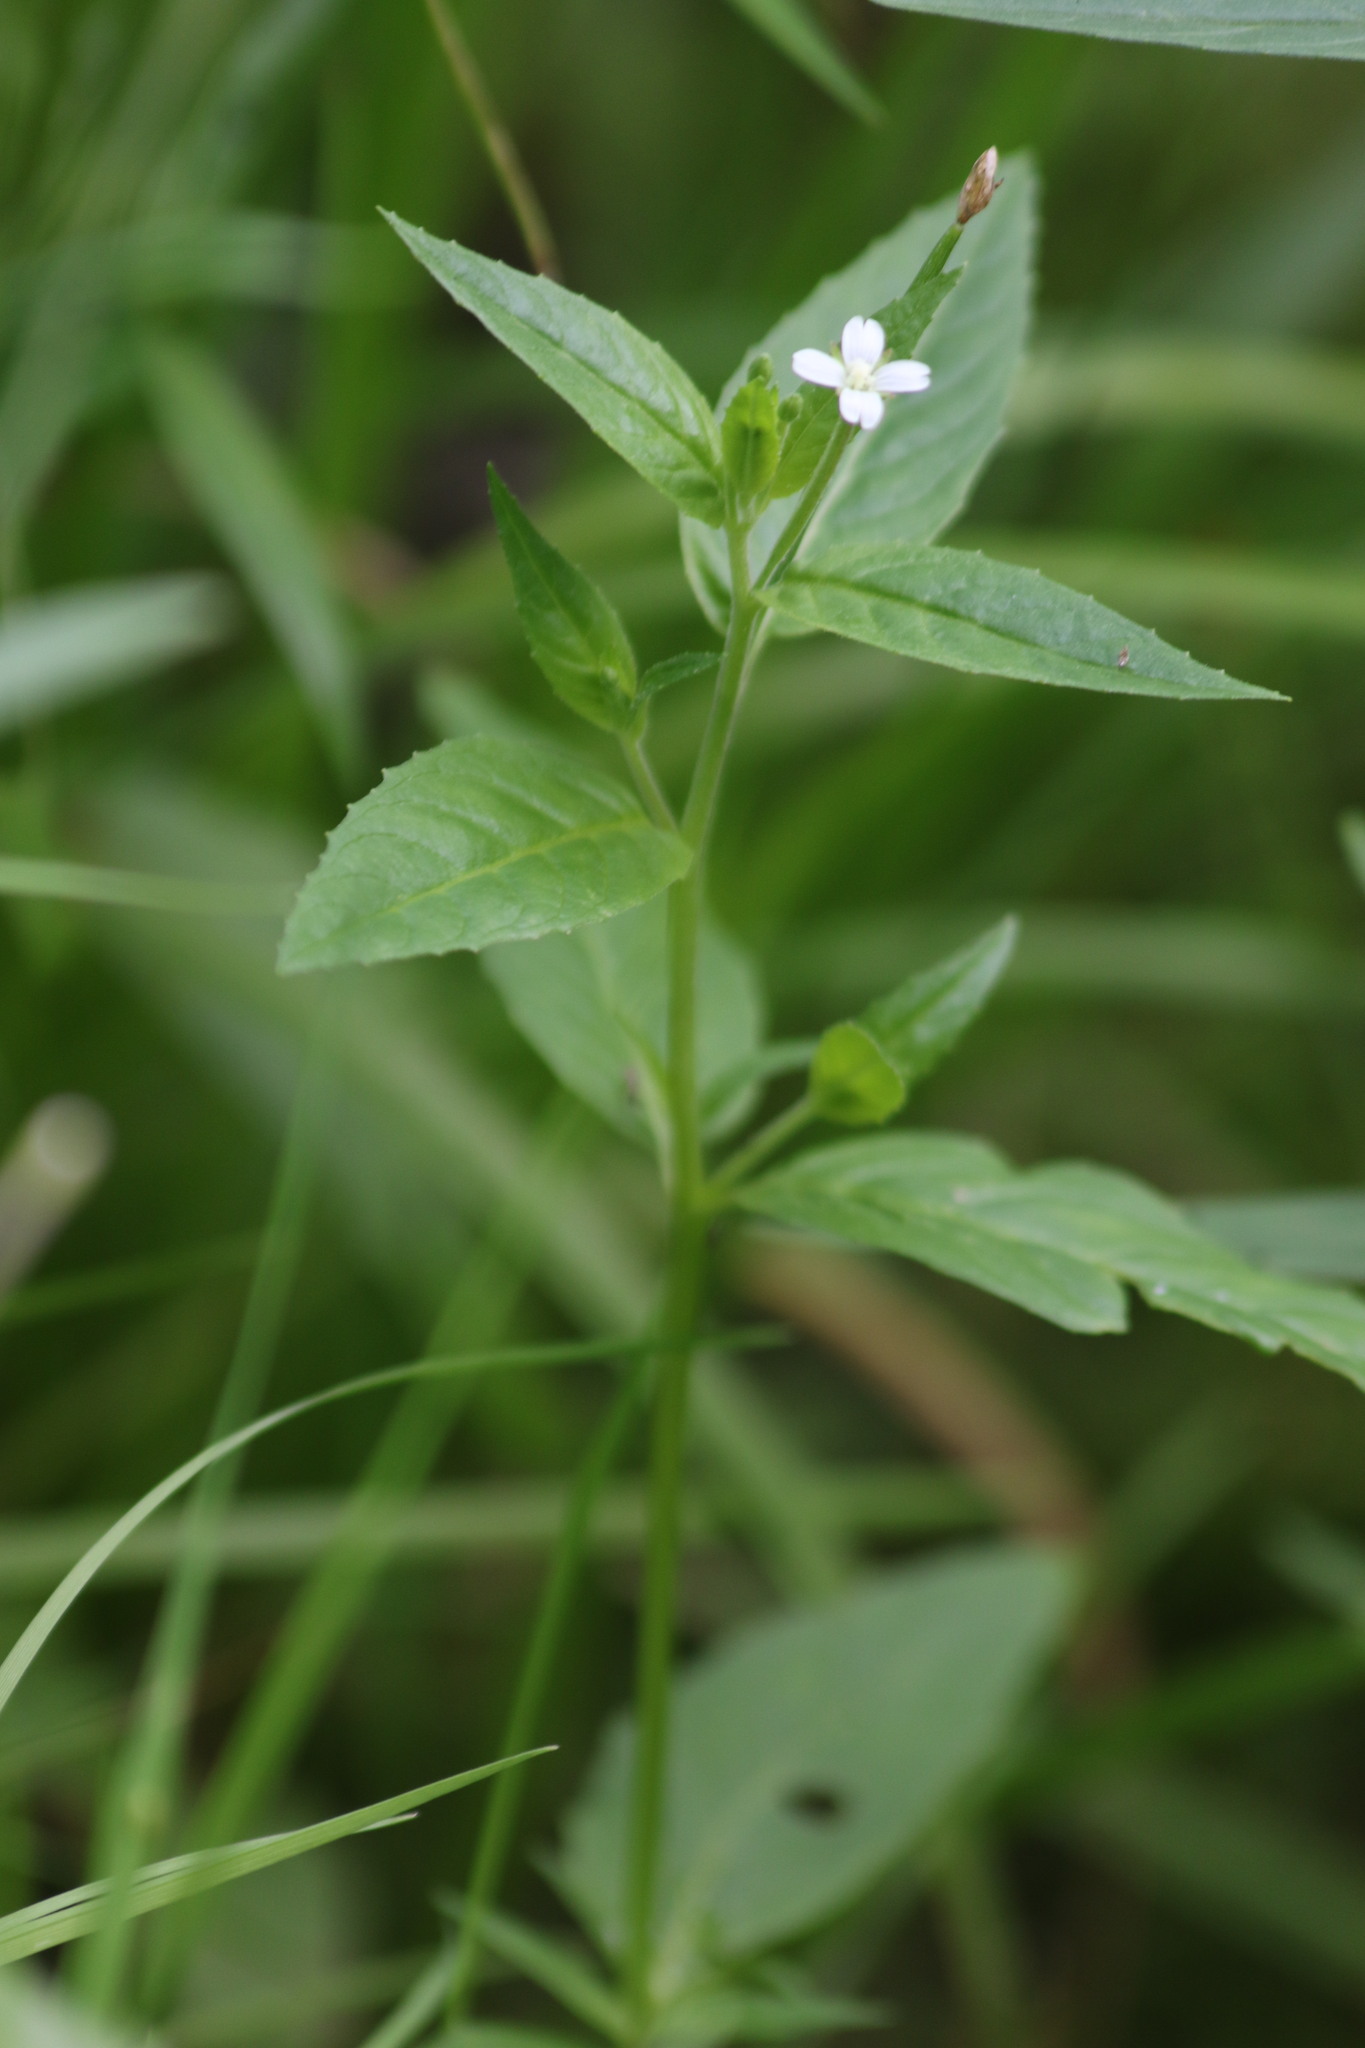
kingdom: Plantae
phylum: Tracheophyta
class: Magnoliopsida
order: Myrtales
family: Onagraceae
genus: Epilobium
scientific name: Epilobium pseudorubescens
